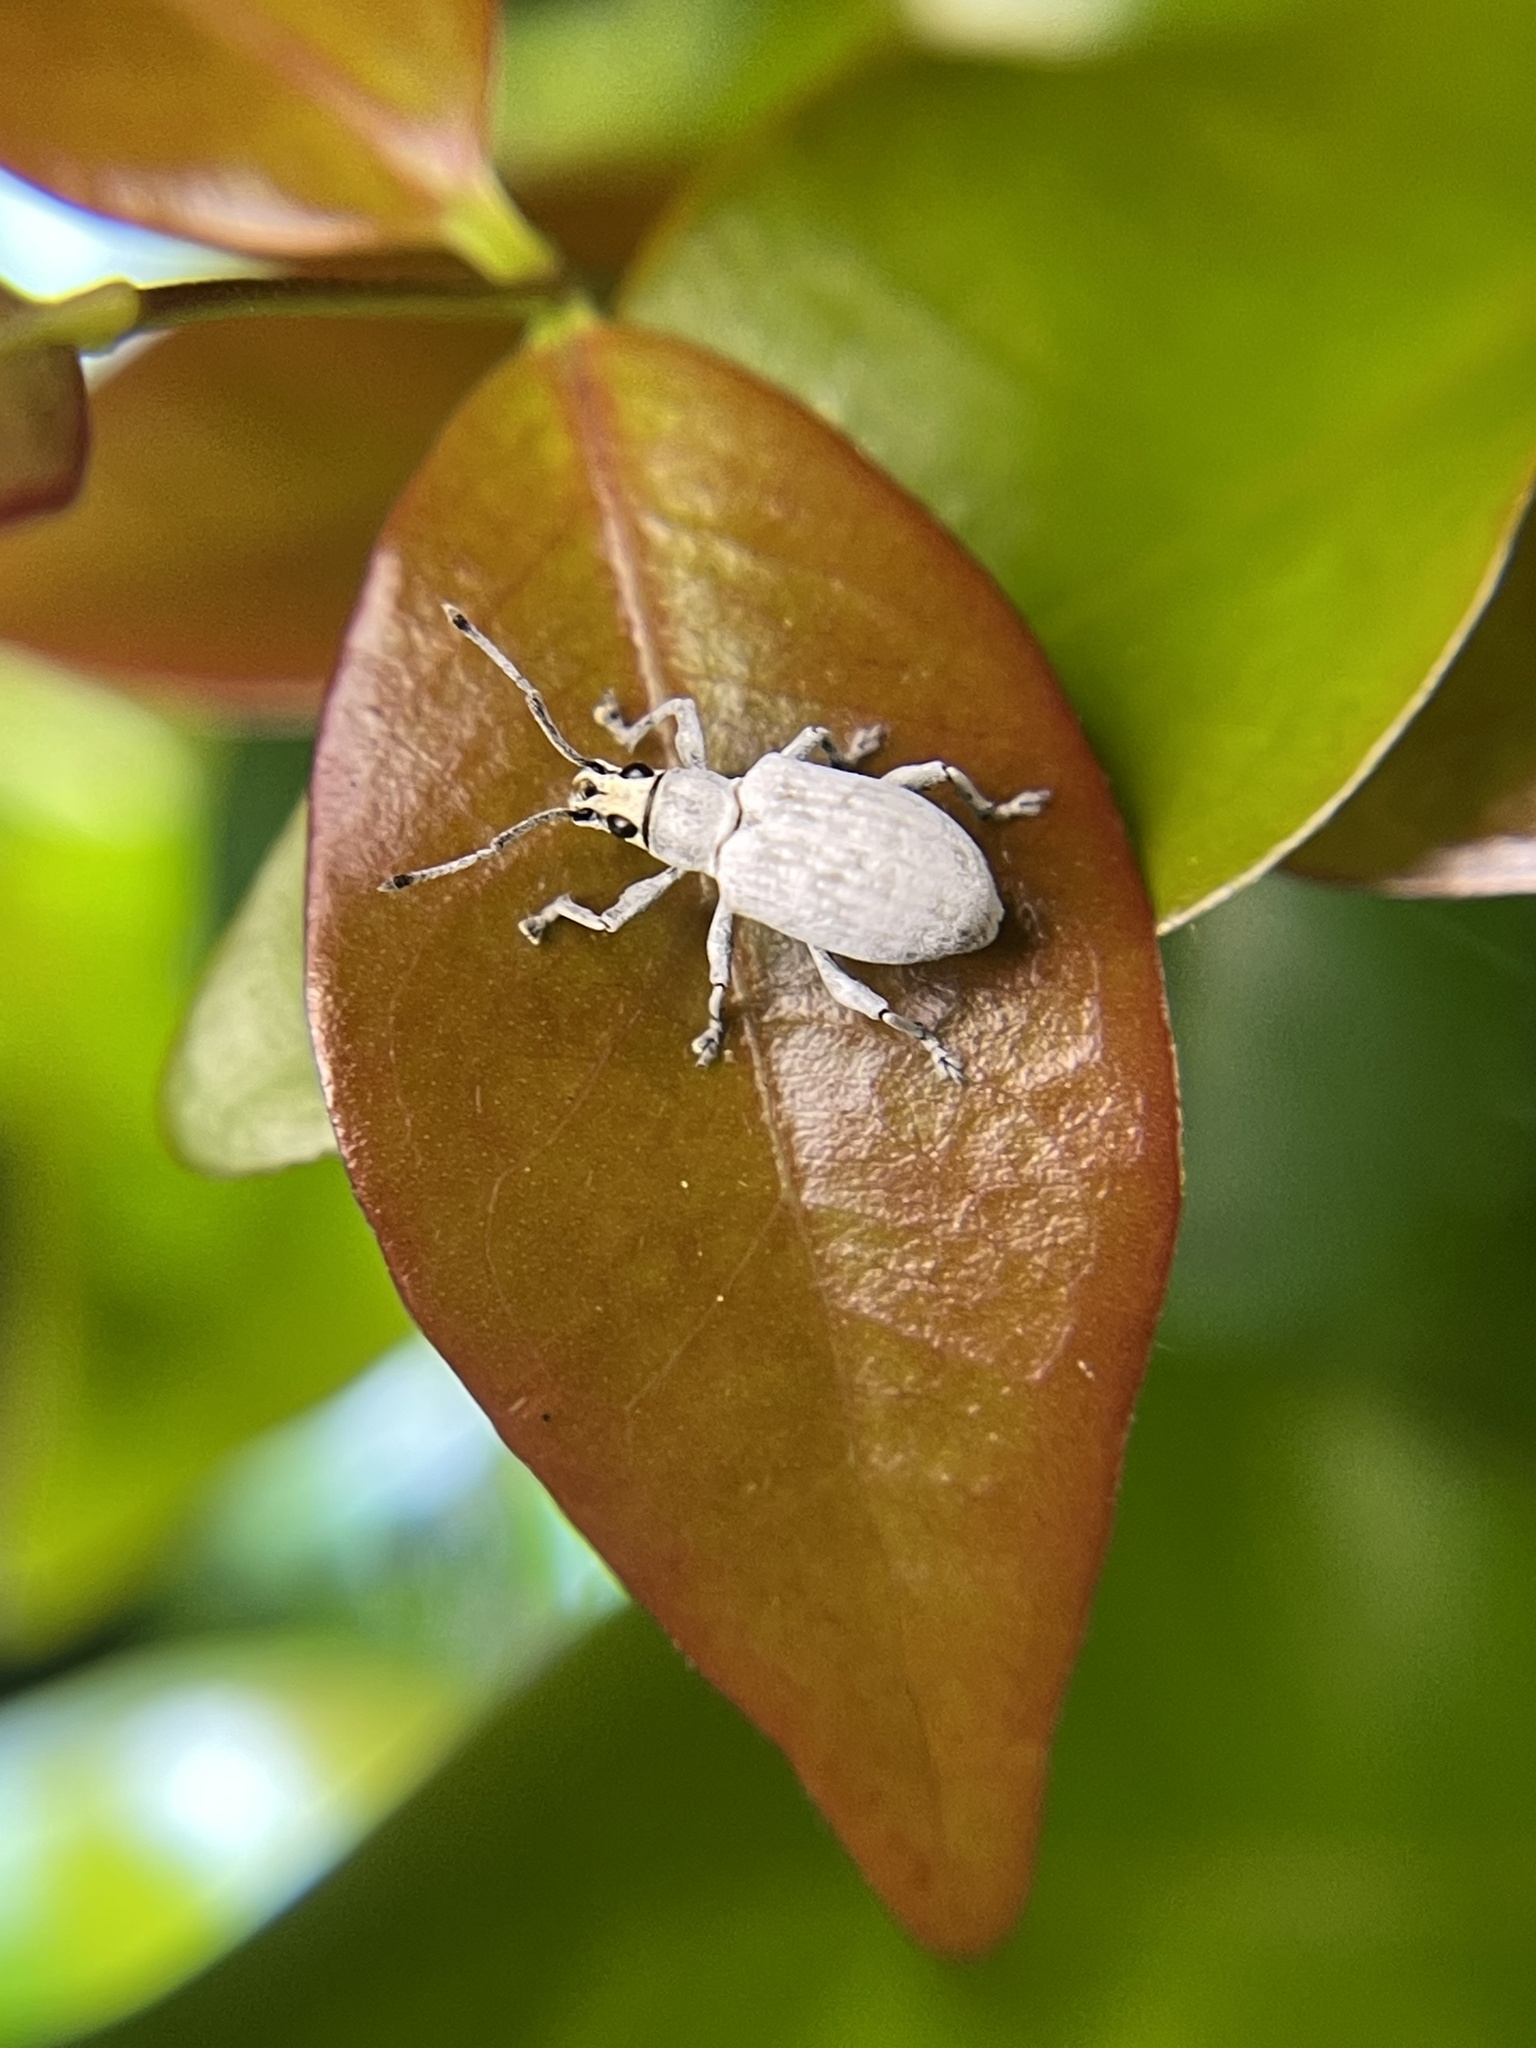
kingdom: Animalia
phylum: Arthropoda
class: Insecta
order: Coleoptera
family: Curculionidae
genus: Myllocerus
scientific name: Myllocerus undecimpustulatus
